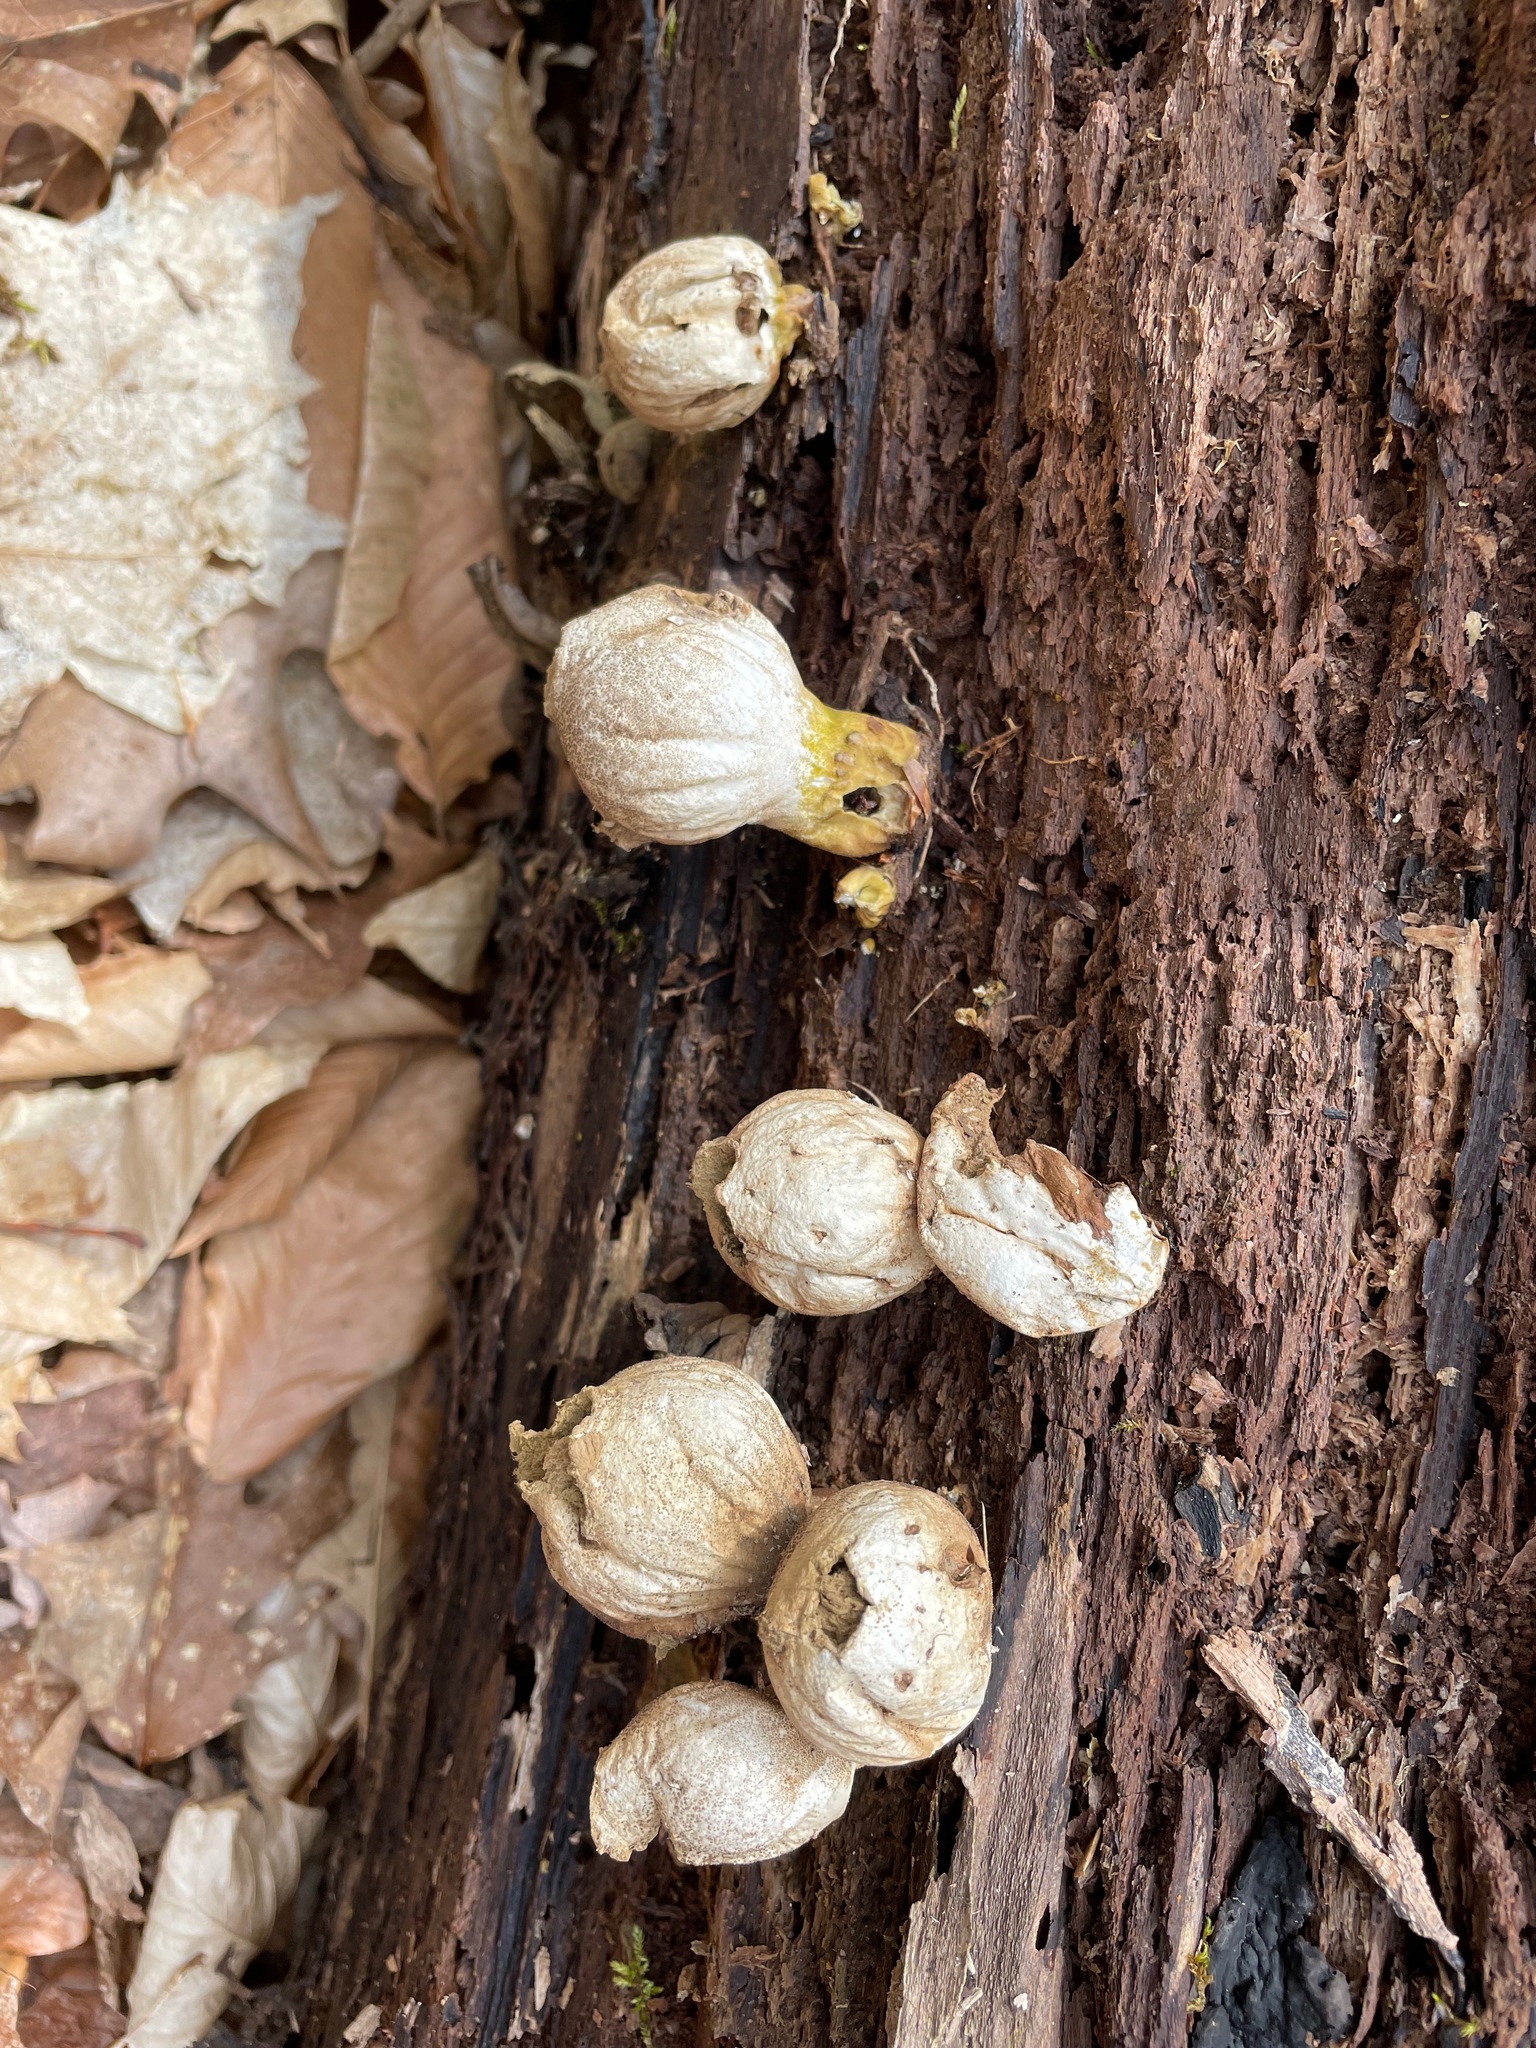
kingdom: Fungi
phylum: Basidiomycota
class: Agaricomycetes
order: Agaricales
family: Lycoperdaceae
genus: Apioperdon
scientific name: Apioperdon pyriforme
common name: Pear-shaped puffball
